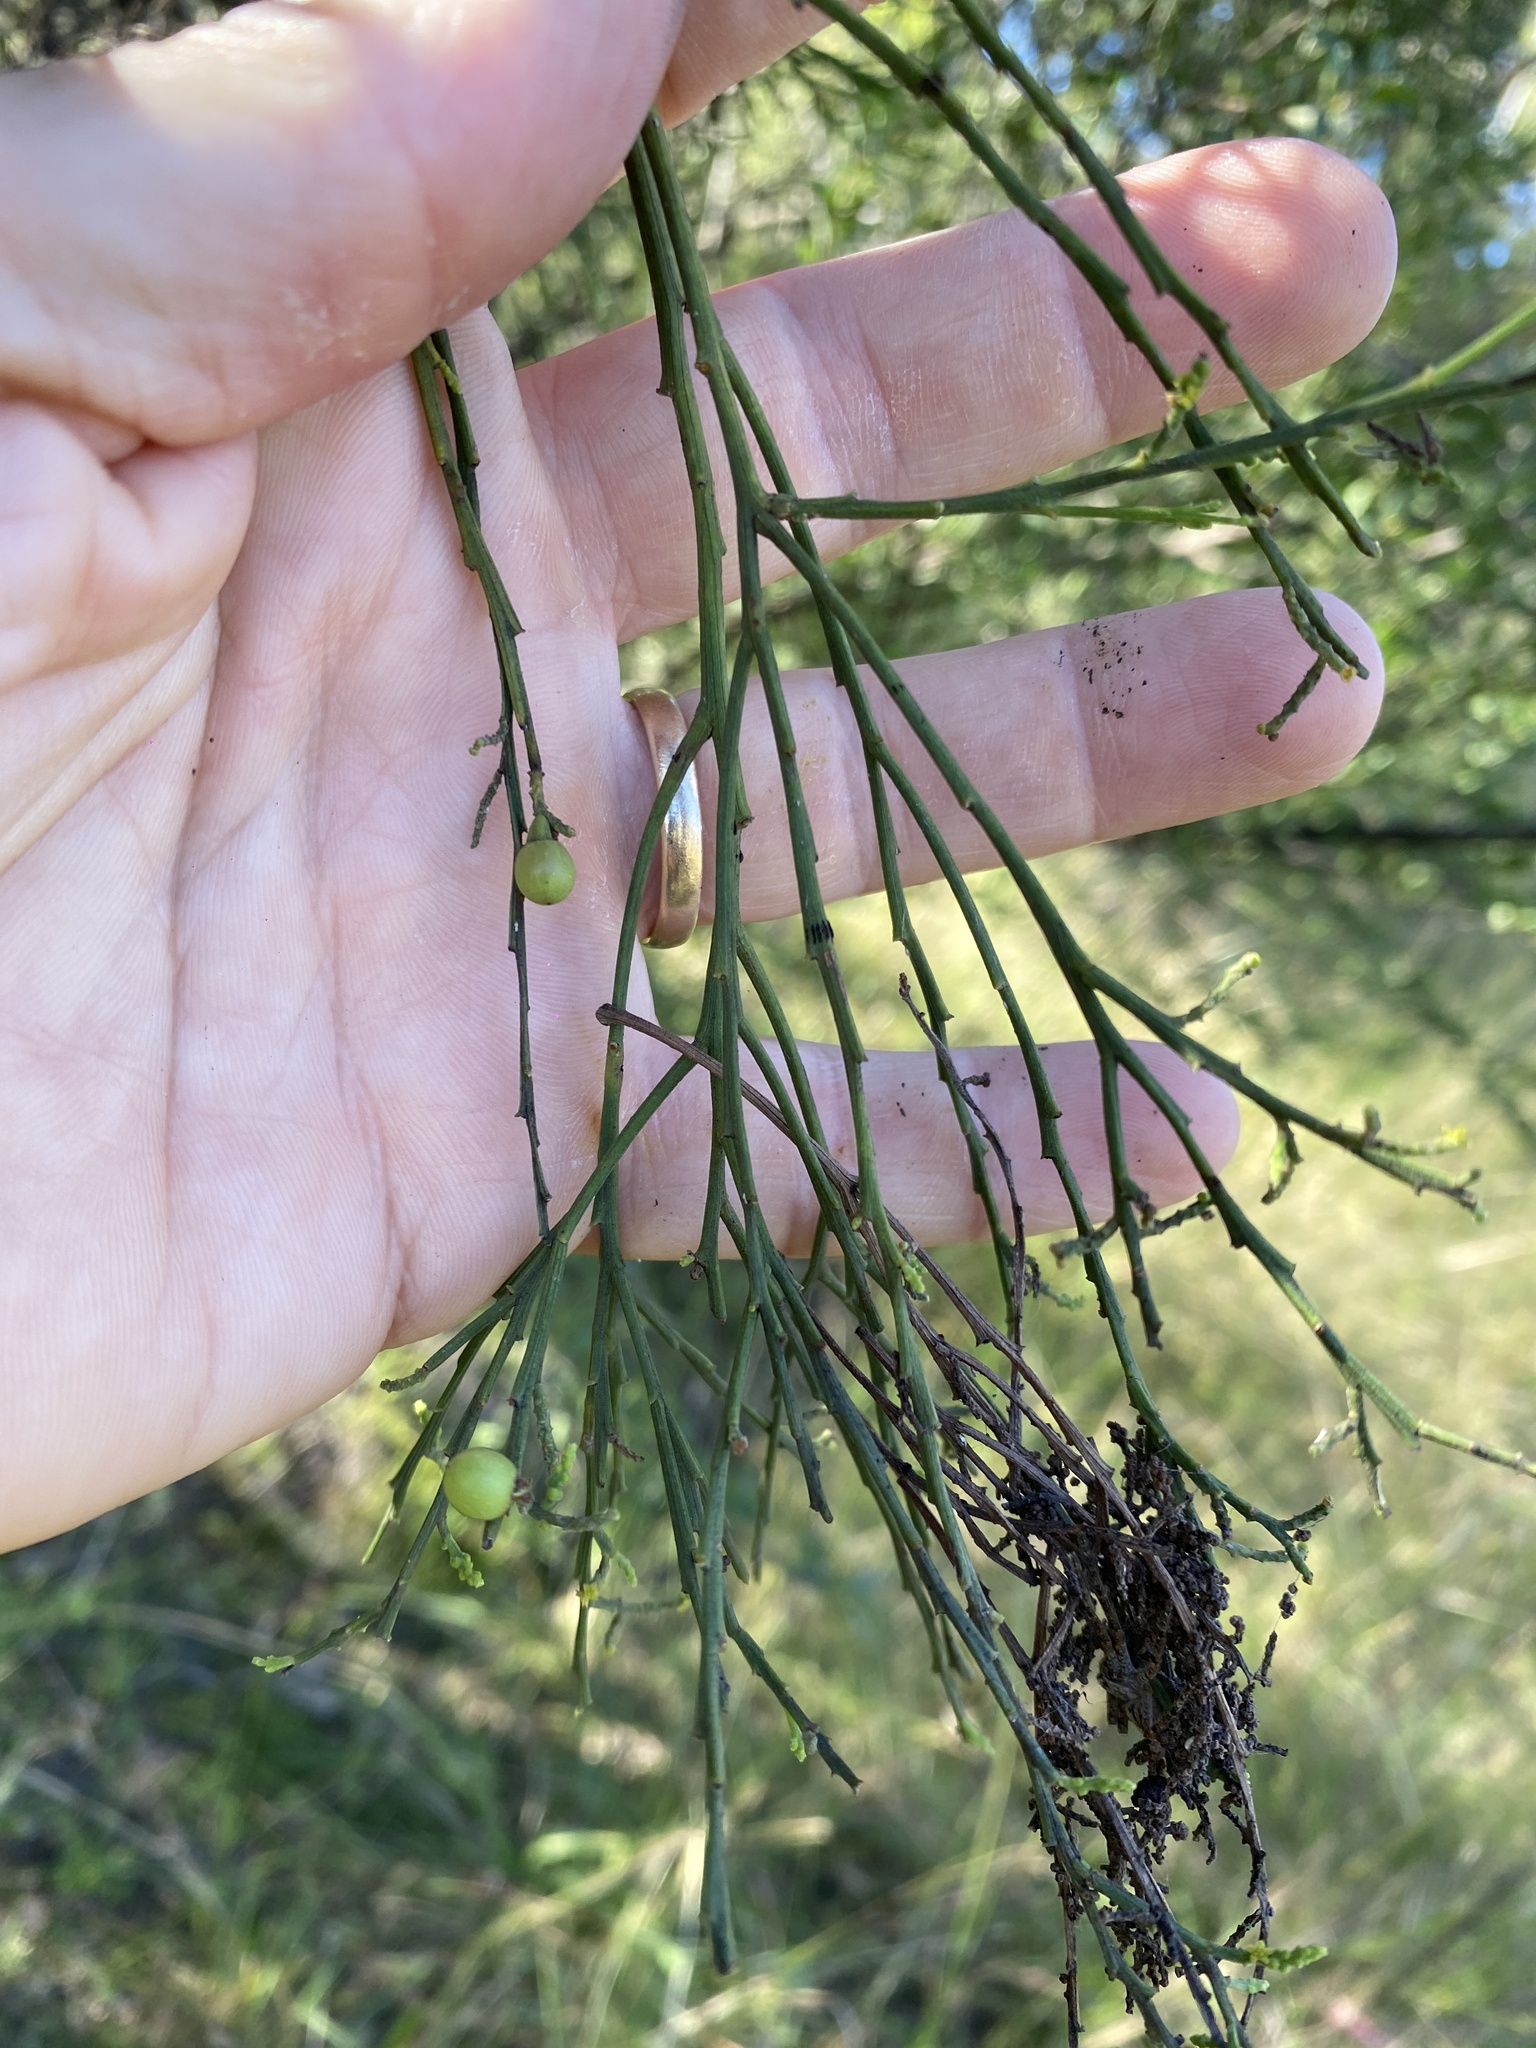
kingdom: Plantae
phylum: Tracheophyta
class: Magnoliopsida
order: Santalales
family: Santalaceae
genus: Exocarpos
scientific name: Exocarpos cupressiformis
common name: Cherry ballart
